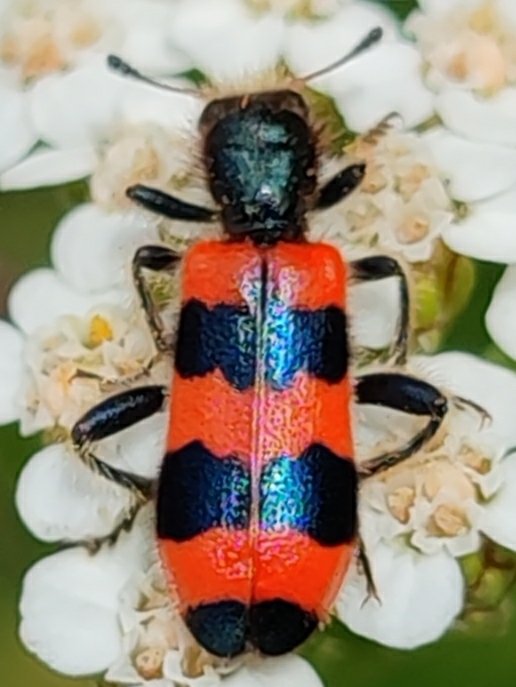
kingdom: Animalia
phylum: Arthropoda
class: Insecta
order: Coleoptera
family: Cleridae
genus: Trichodes
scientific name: Trichodes apiarius
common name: Bee-eating beetle
